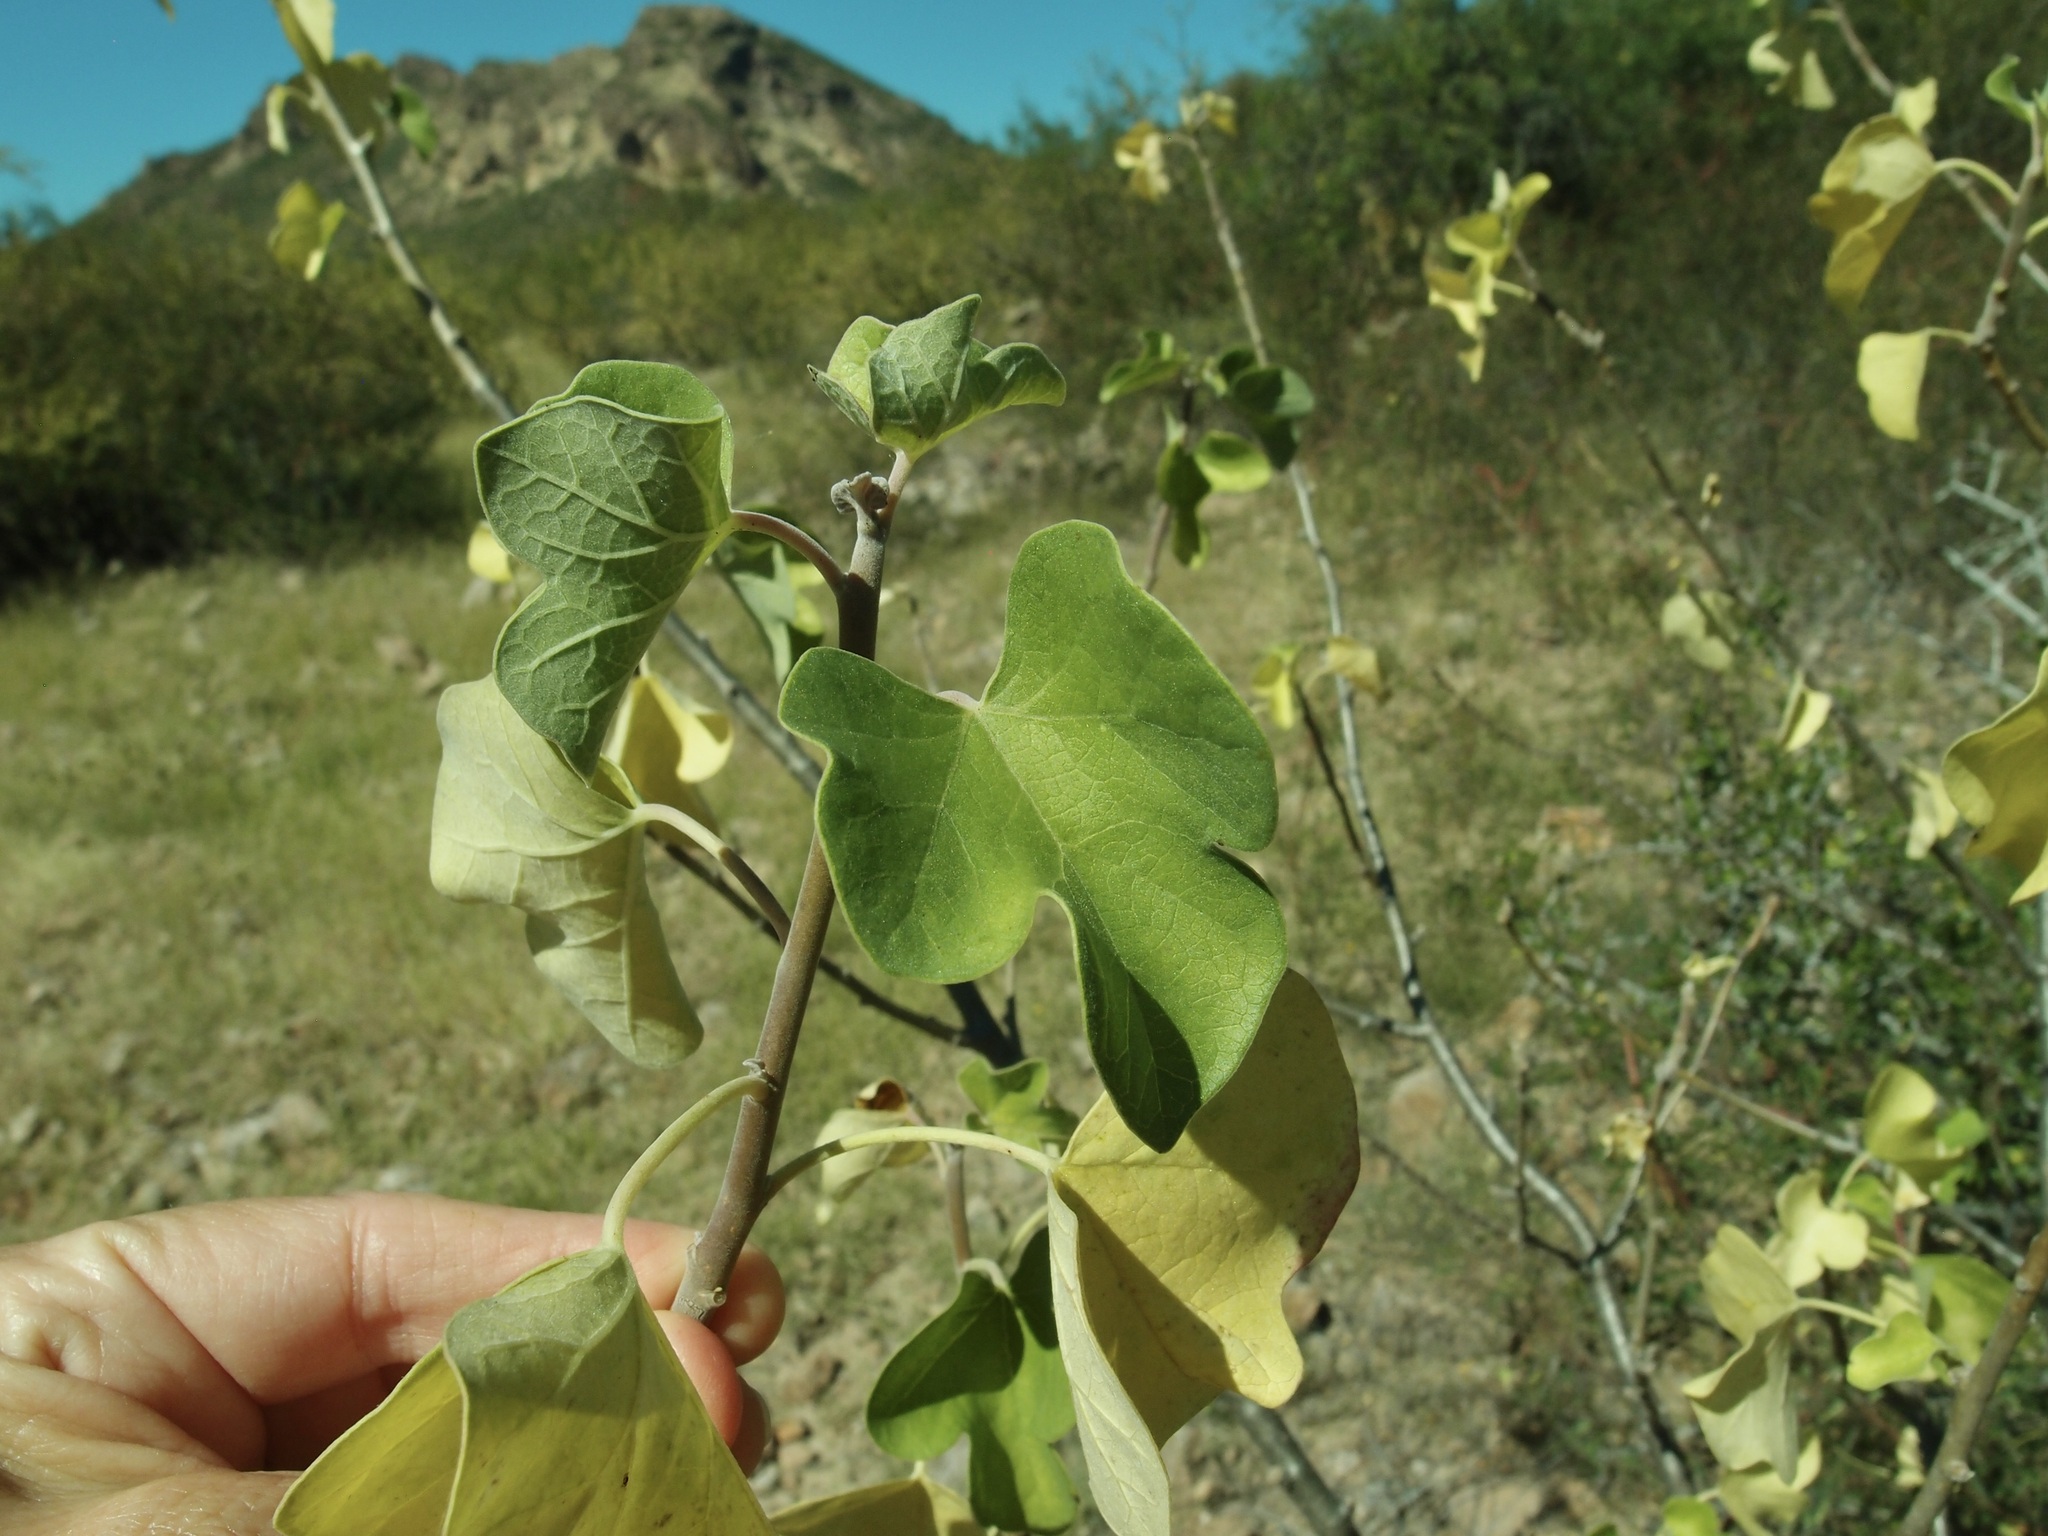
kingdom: Plantae
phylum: Tracheophyta
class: Magnoliopsida
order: Malpighiales
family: Euphorbiaceae
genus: Jatropha
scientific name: Jatropha cinerea
